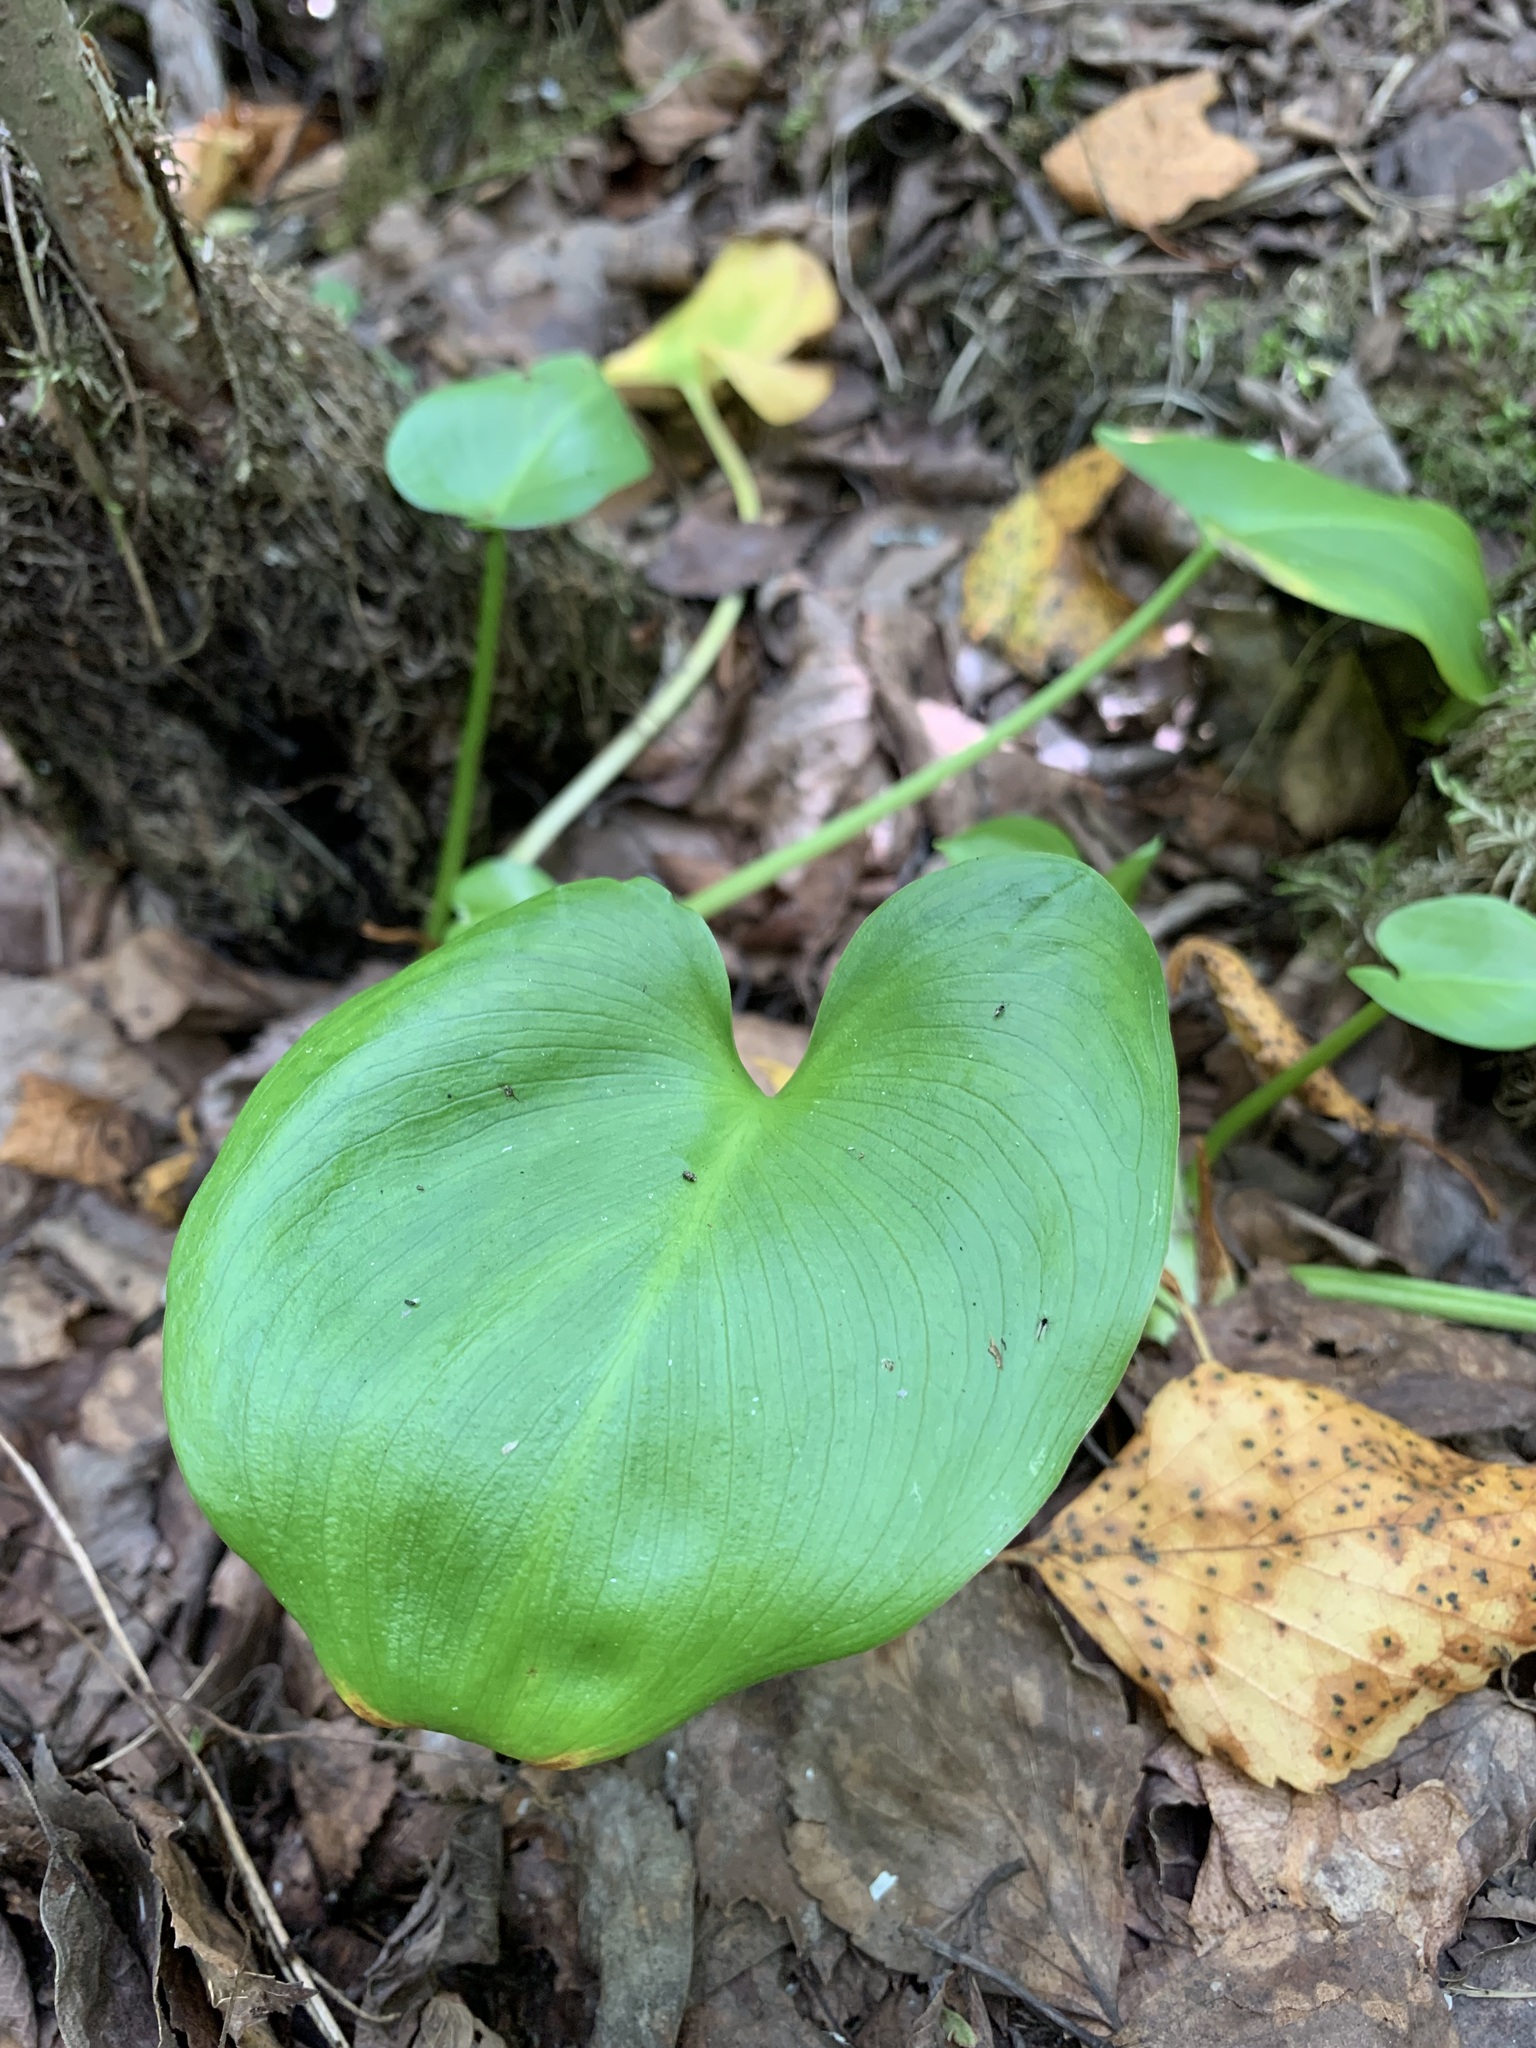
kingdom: Plantae
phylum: Tracheophyta
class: Liliopsida
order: Alismatales
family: Araceae
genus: Calla
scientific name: Calla palustris
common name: Bog arum
